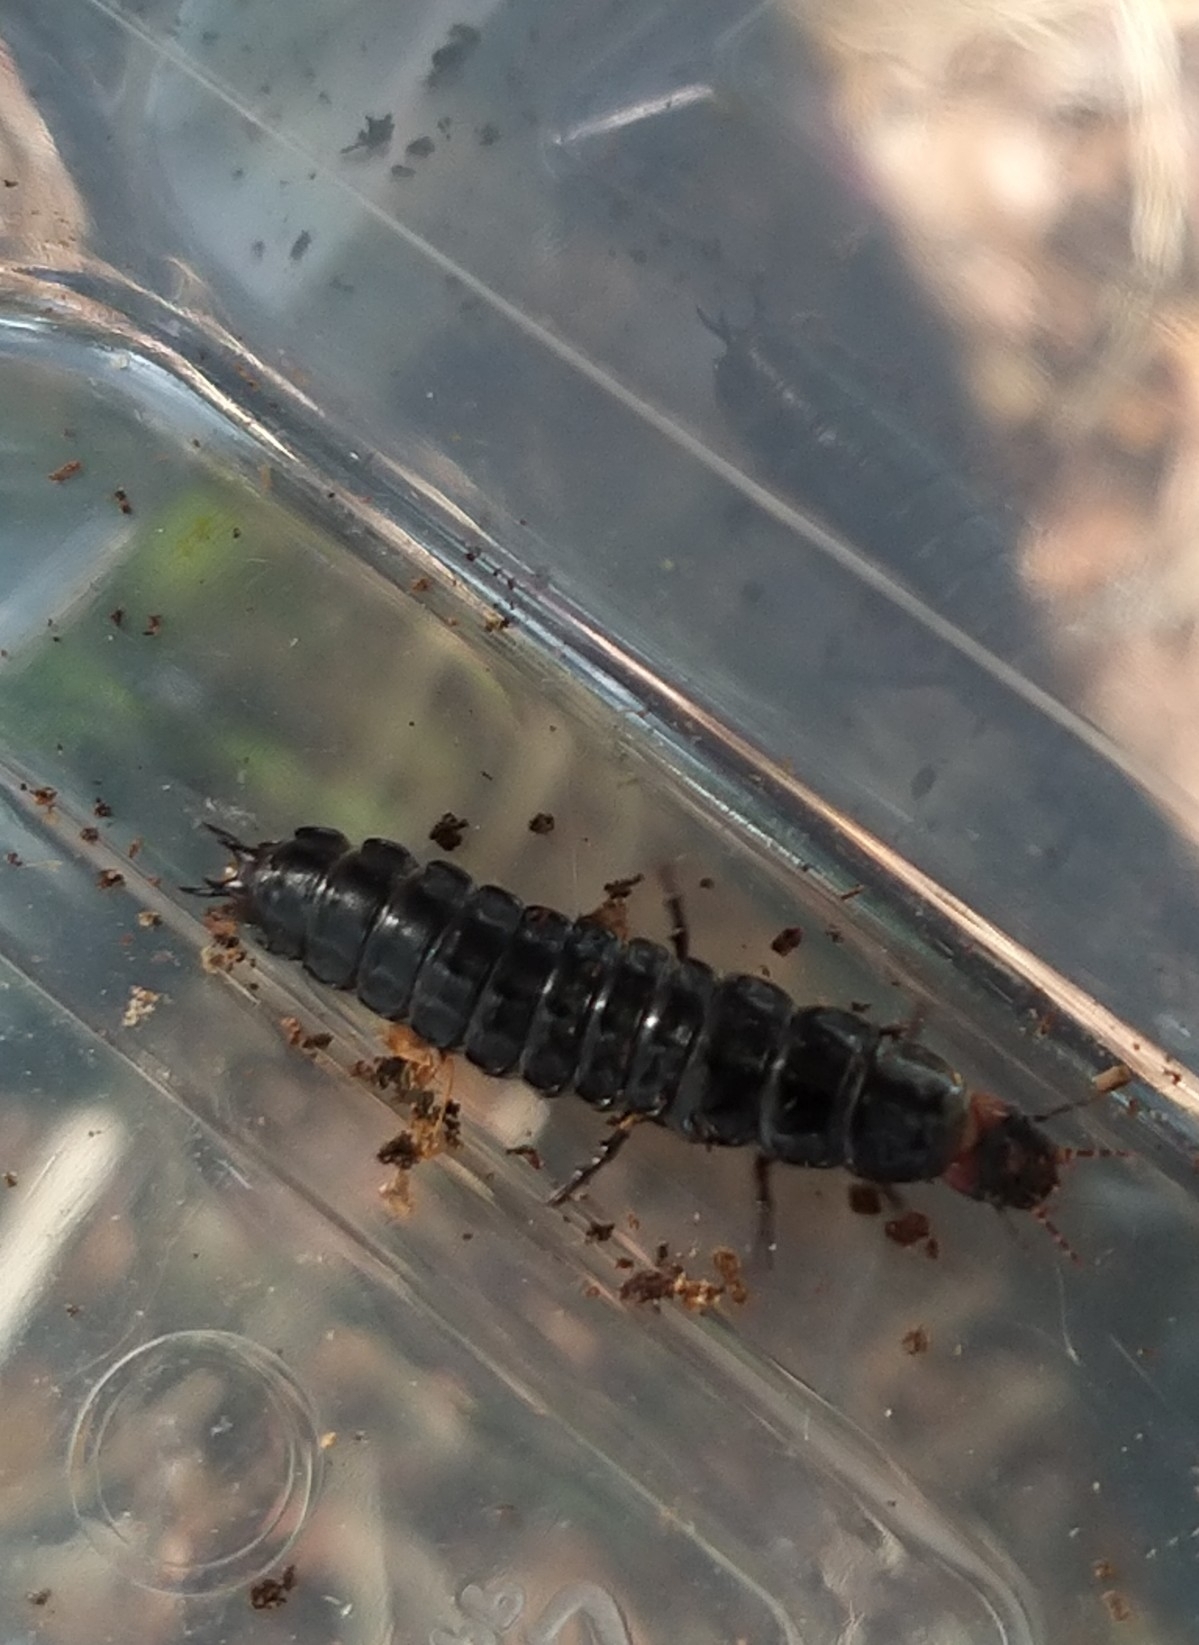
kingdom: Animalia
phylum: Arthropoda
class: Insecta
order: Coleoptera
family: Carabidae
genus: Carabus
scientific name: Carabus violaceus
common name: Violet ground beetle
